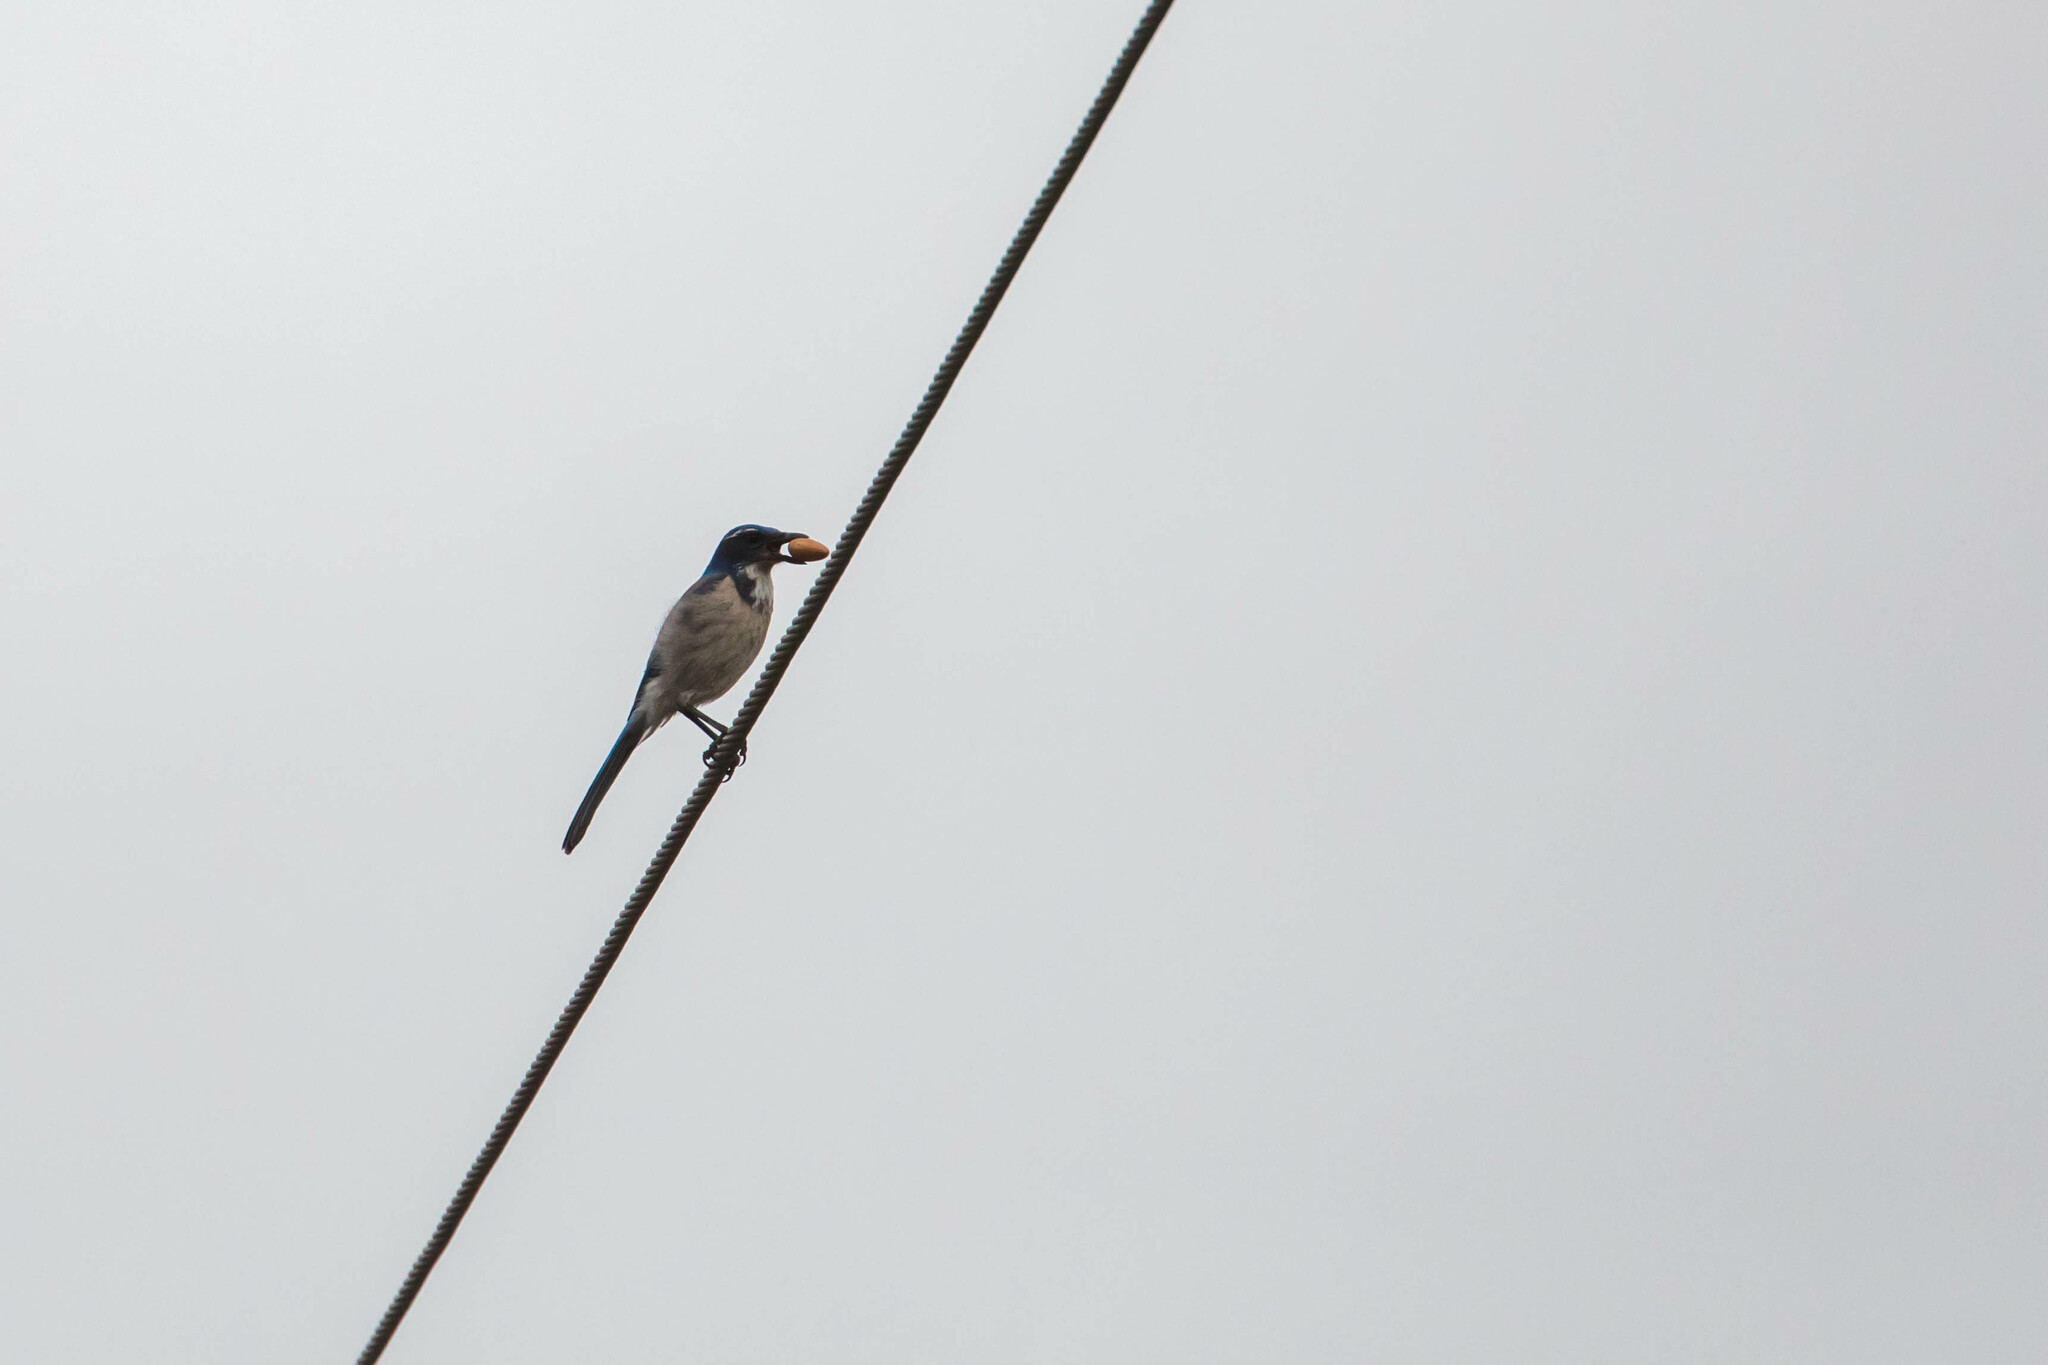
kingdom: Animalia
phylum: Chordata
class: Aves
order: Passeriformes
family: Corvidae
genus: Aphelocoma
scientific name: Aphelocoma californica
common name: California scrub-jay
